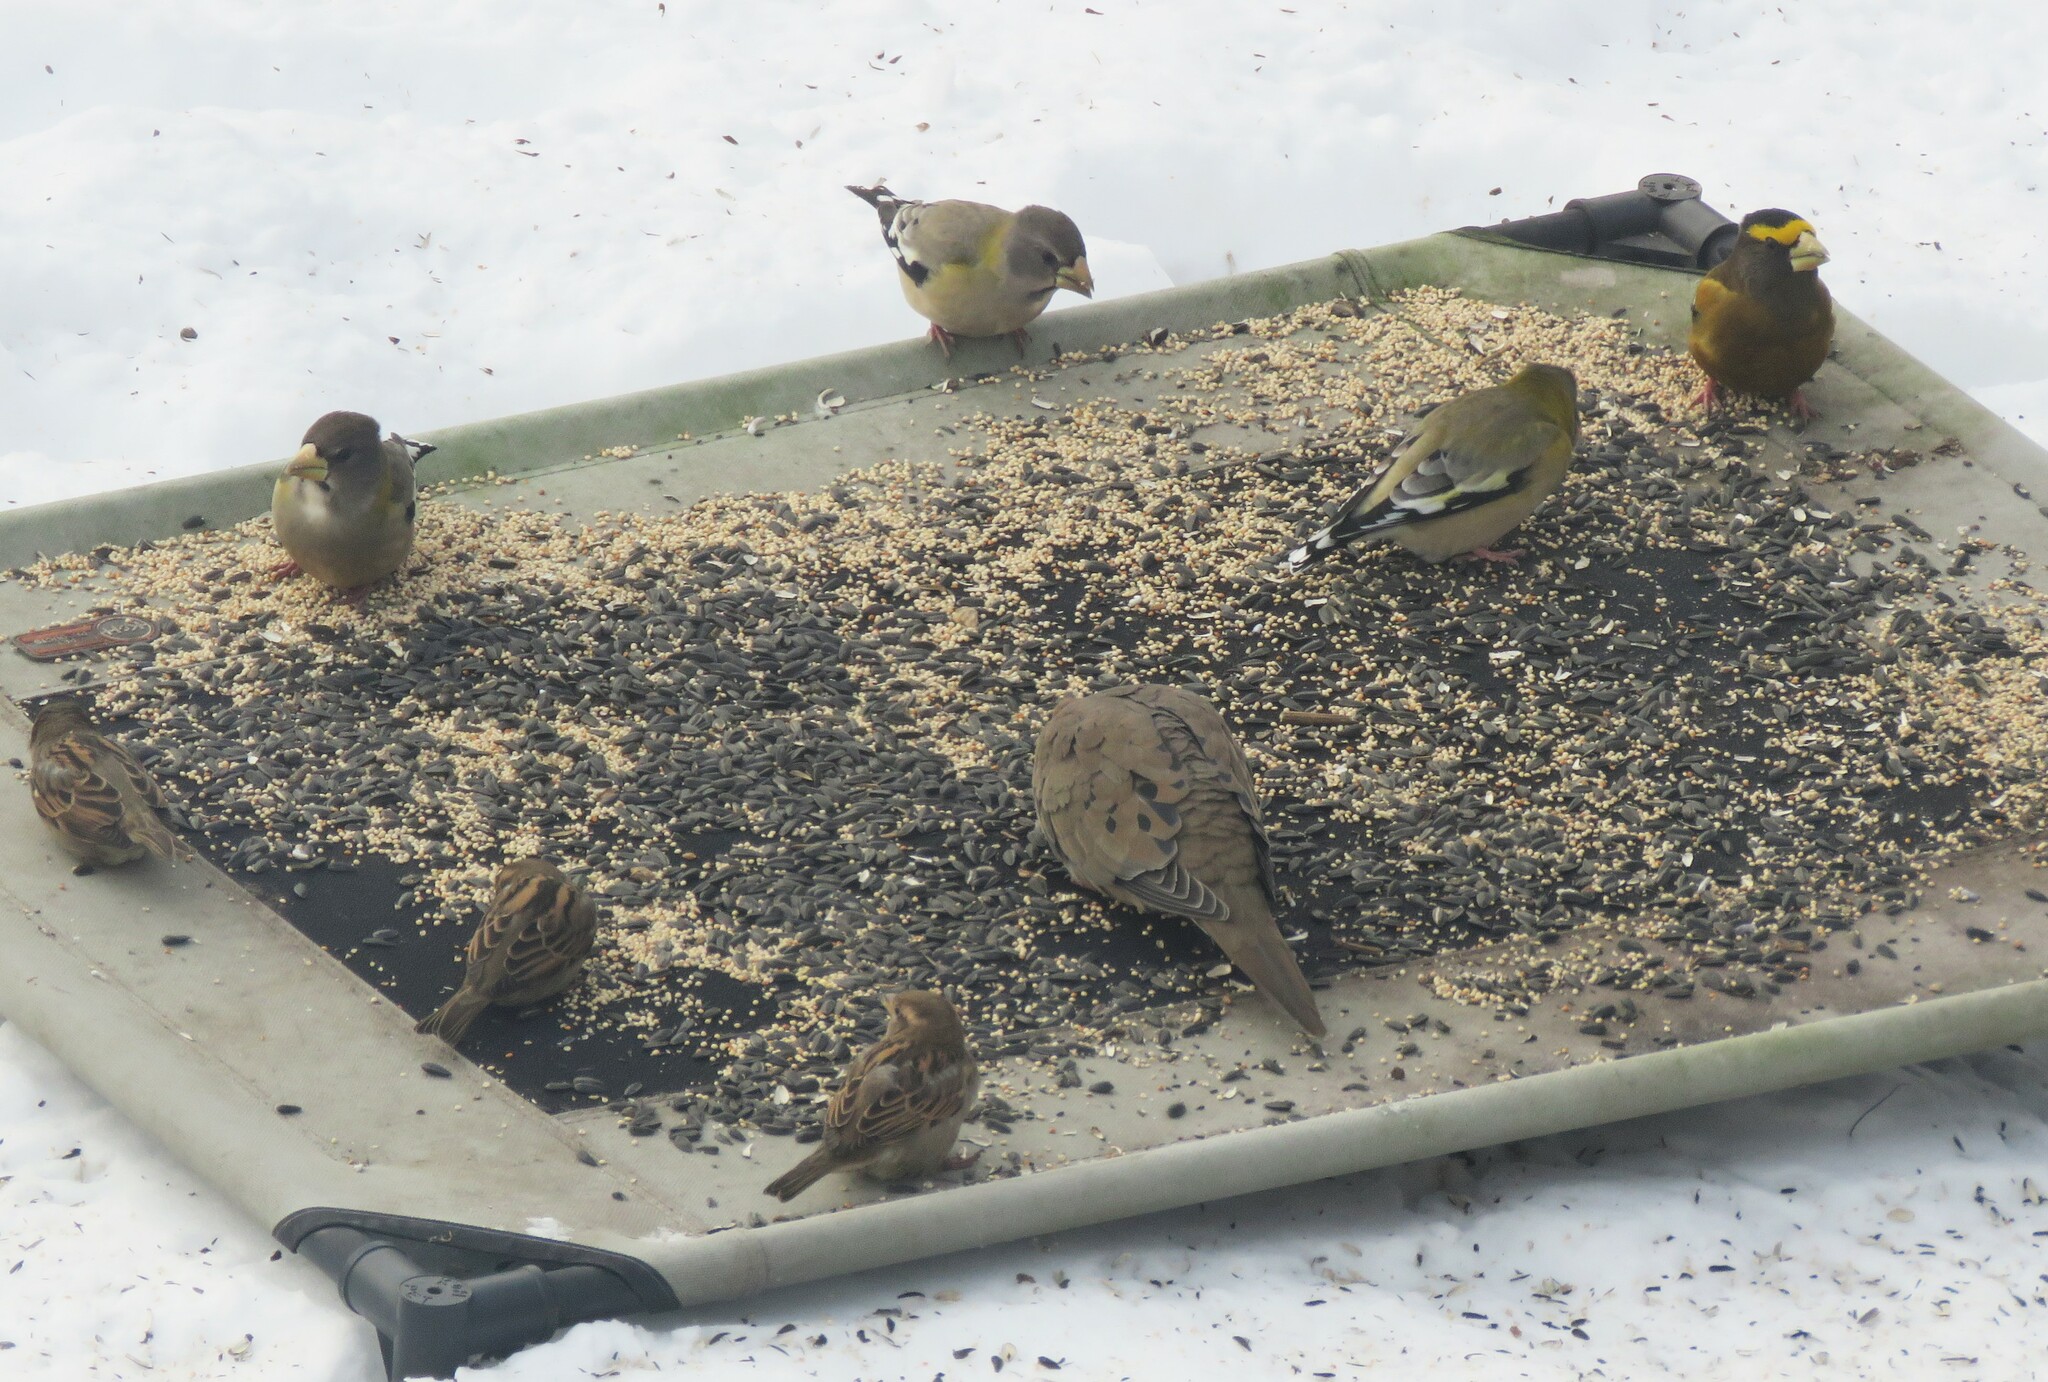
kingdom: Animalia
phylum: Chordata
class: Aves
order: Passeriformes
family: Fringillidae
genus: Hesperiphona
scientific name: Hesperiphona vespertina
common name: Evening grosbeak
